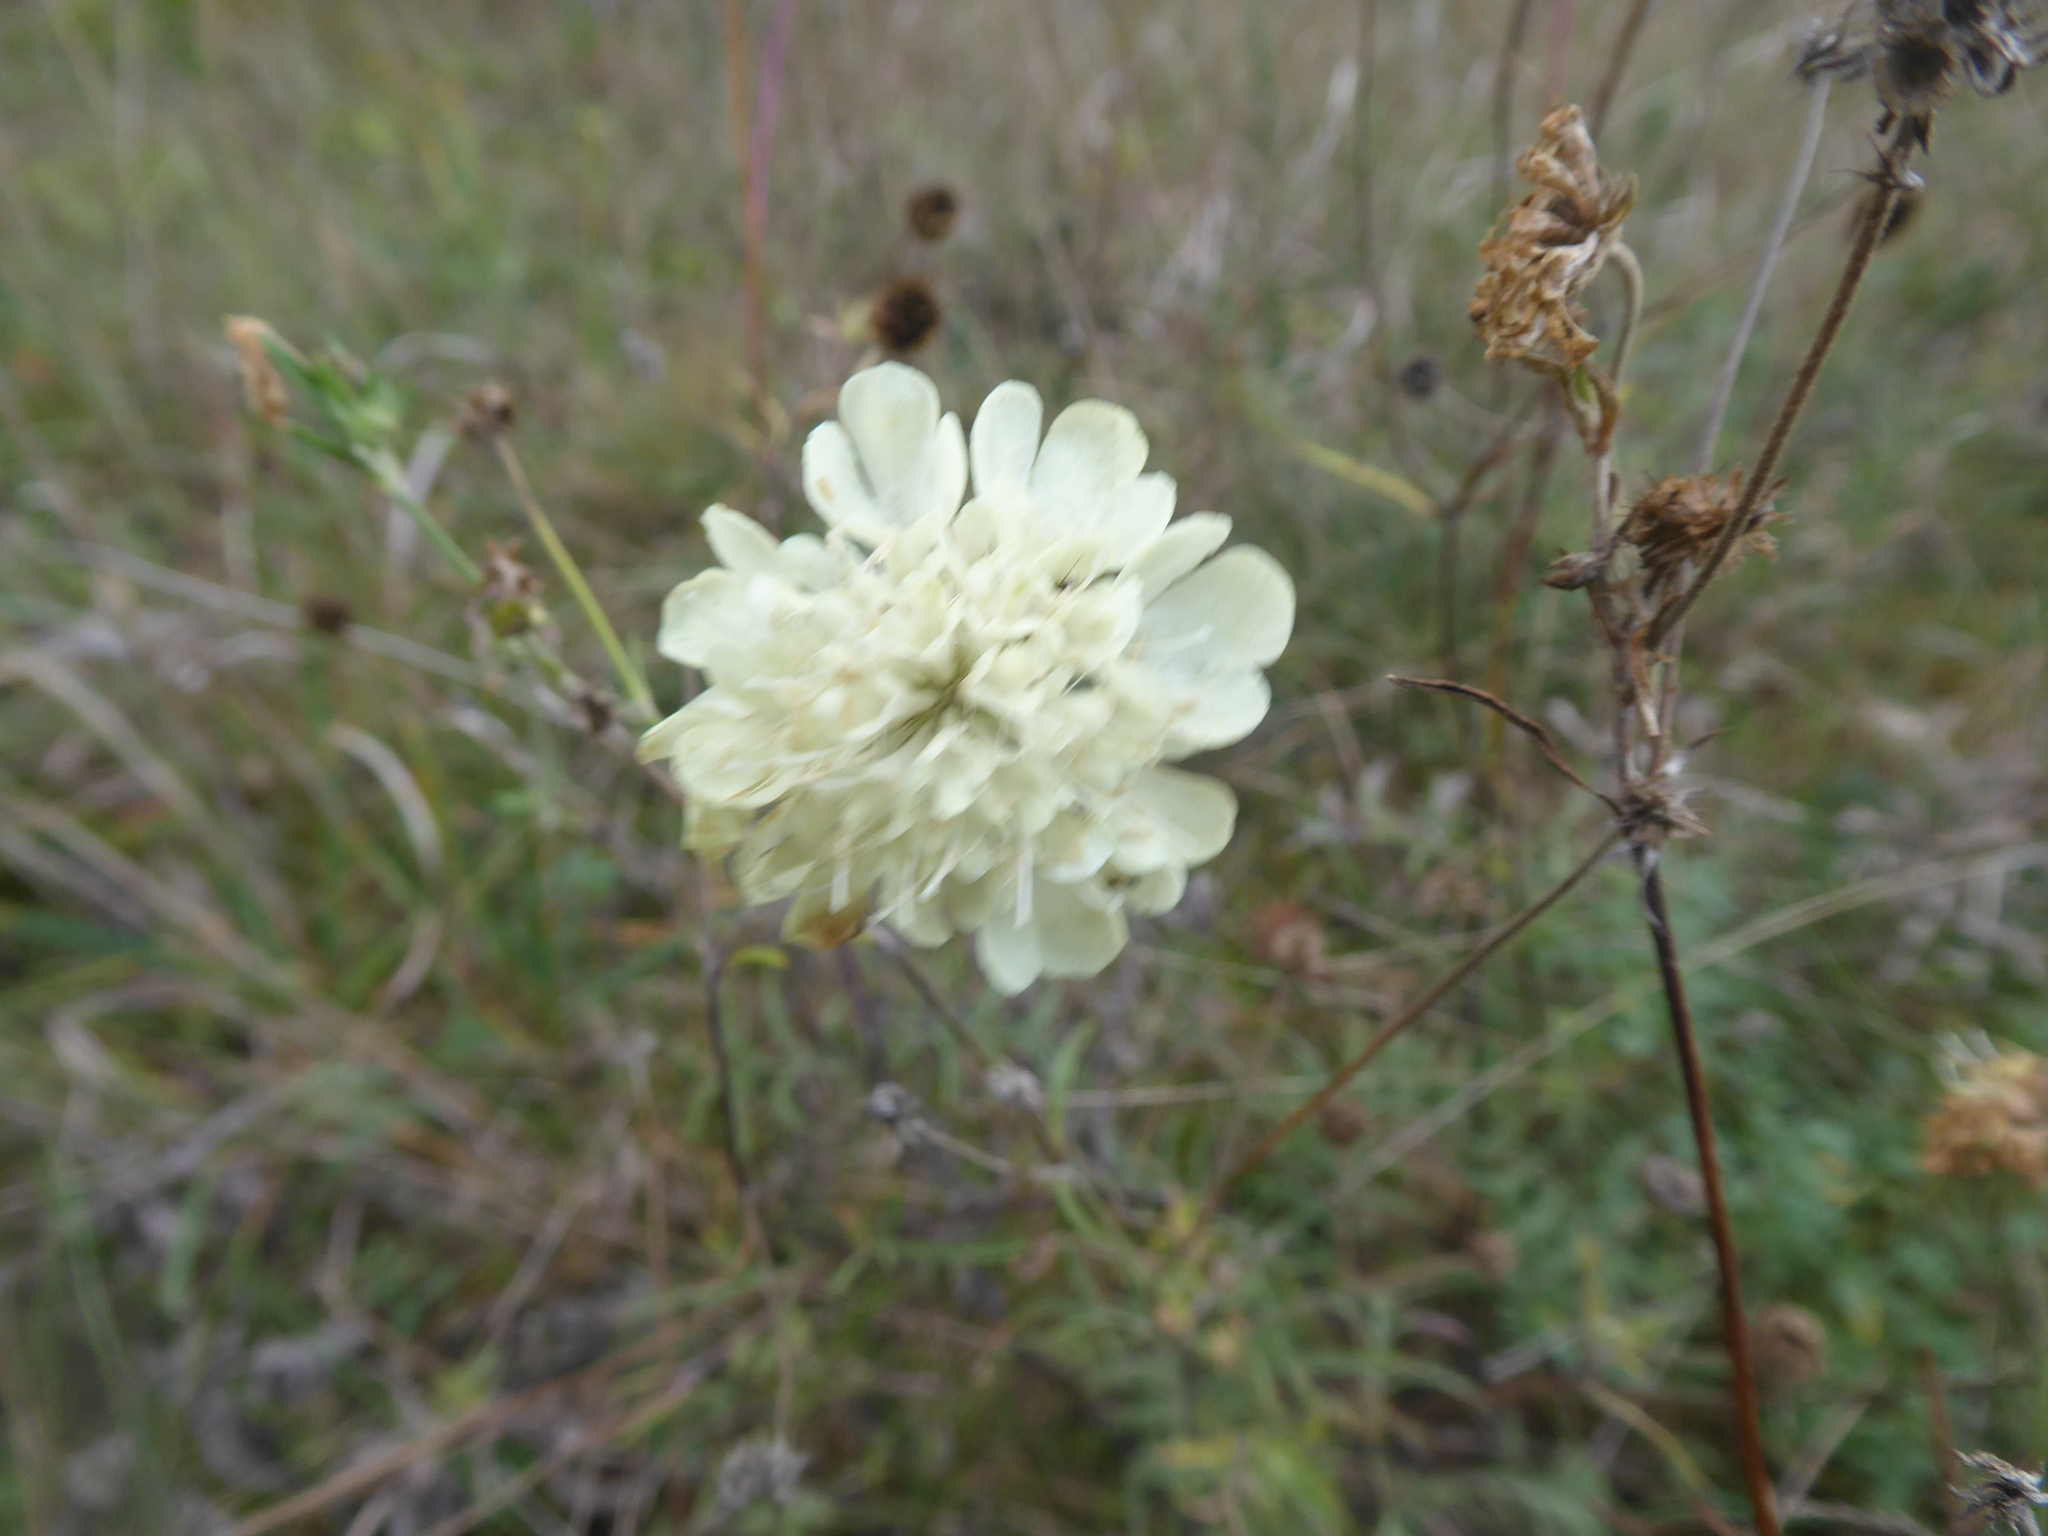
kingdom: Plantae
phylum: Tracheophyta
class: Magnoliopsida
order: Dipsacales
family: Caprifoliaceae
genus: Scabiosa
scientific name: Scabiosa ochroleuca
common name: Cream pincushions
